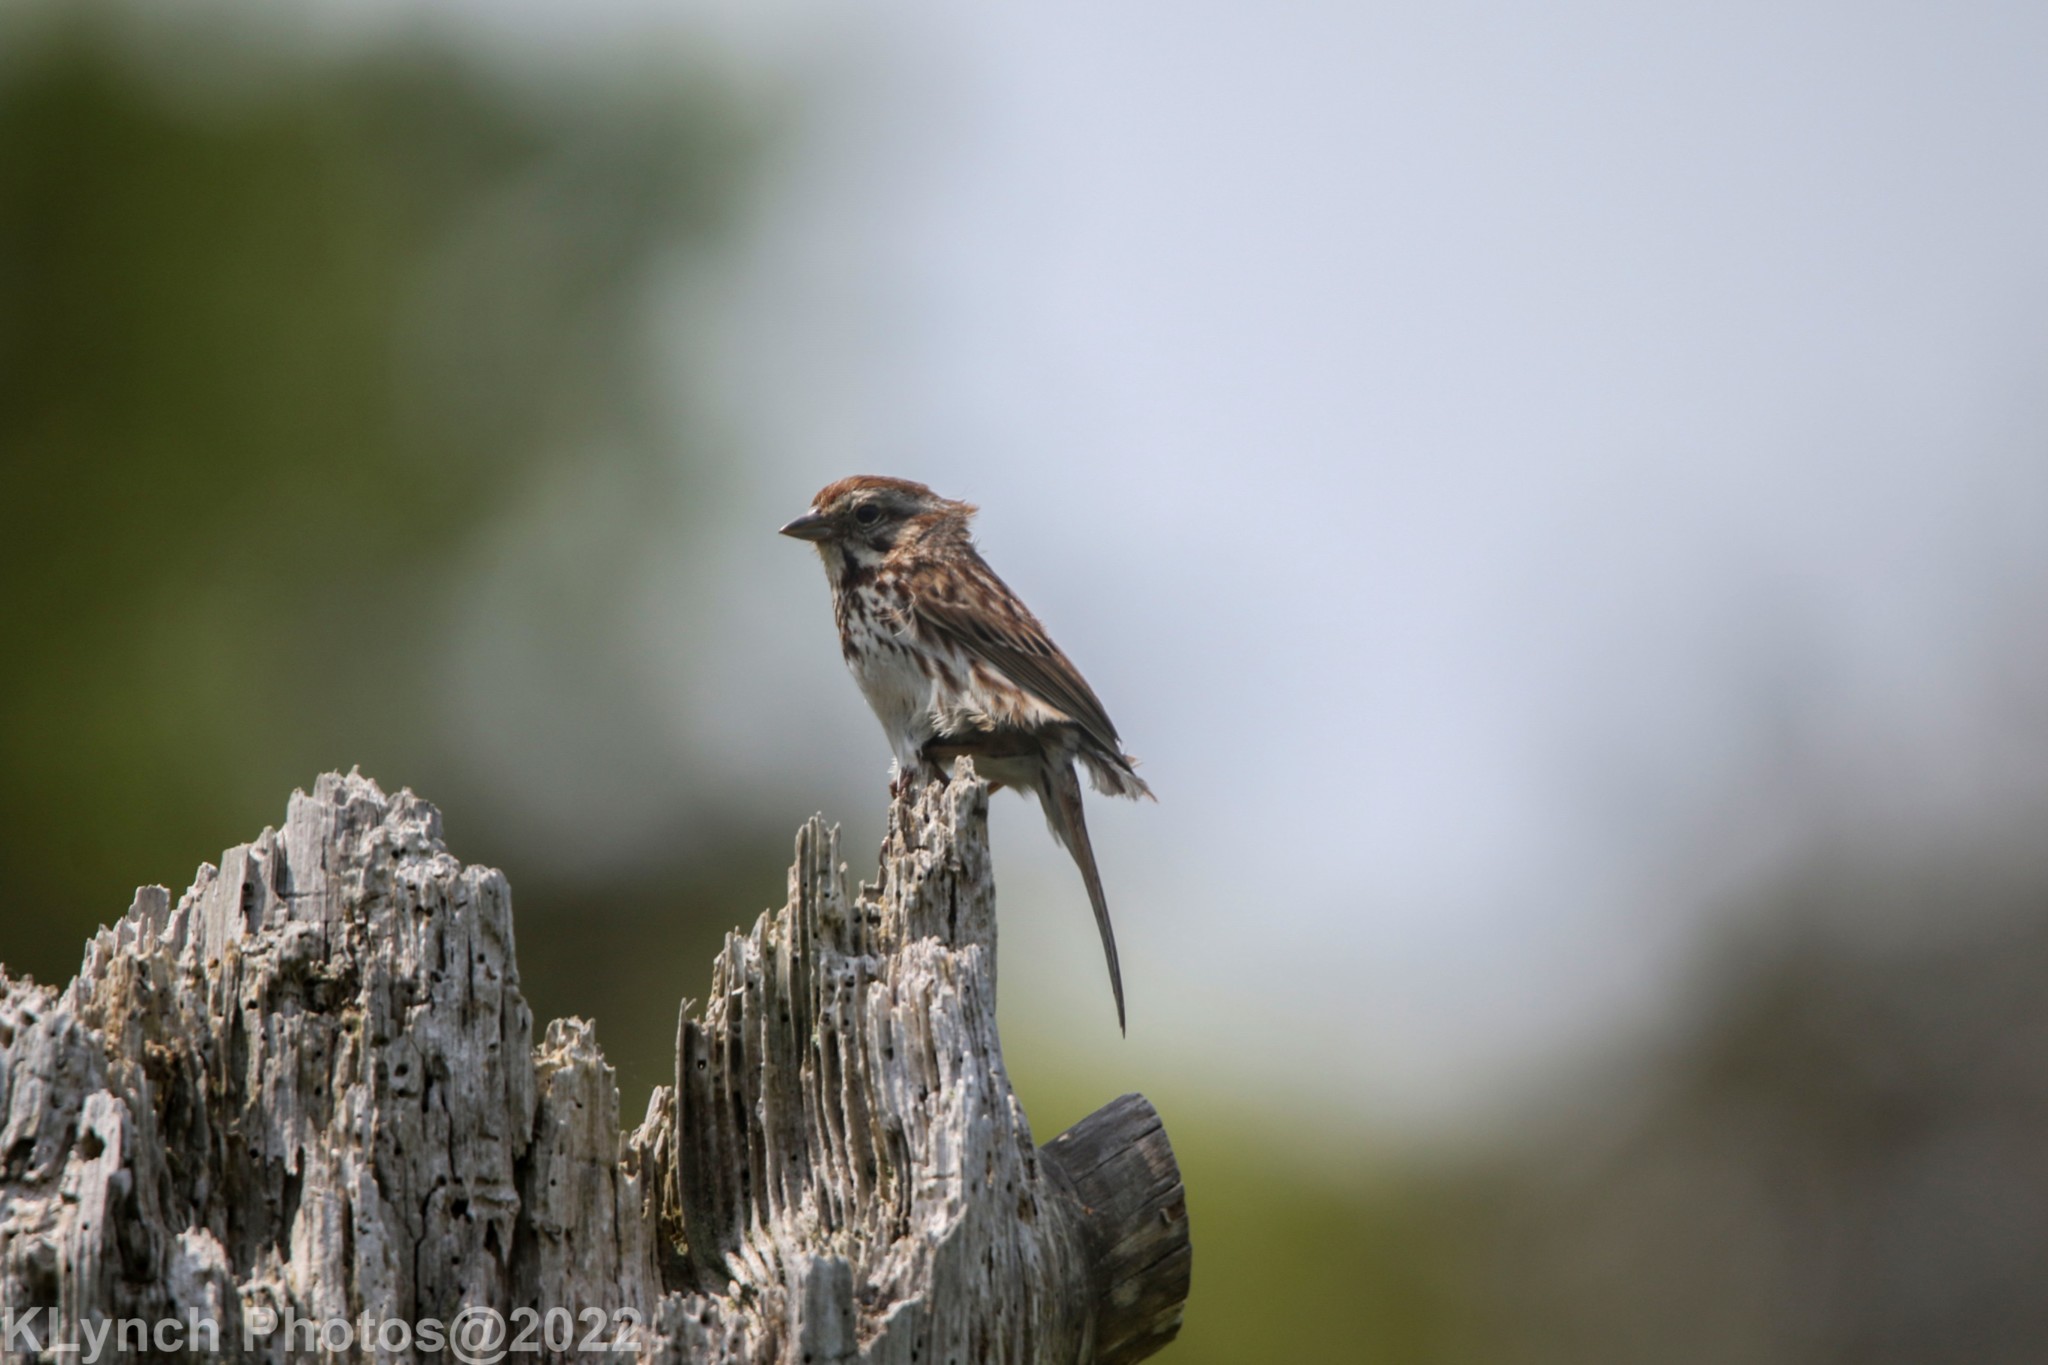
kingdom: Animalia
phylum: Chordata
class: Aves
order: Passeriformes
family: Passerellidae
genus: Melospiza
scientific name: Melospiza melodia
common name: Song sparrow
